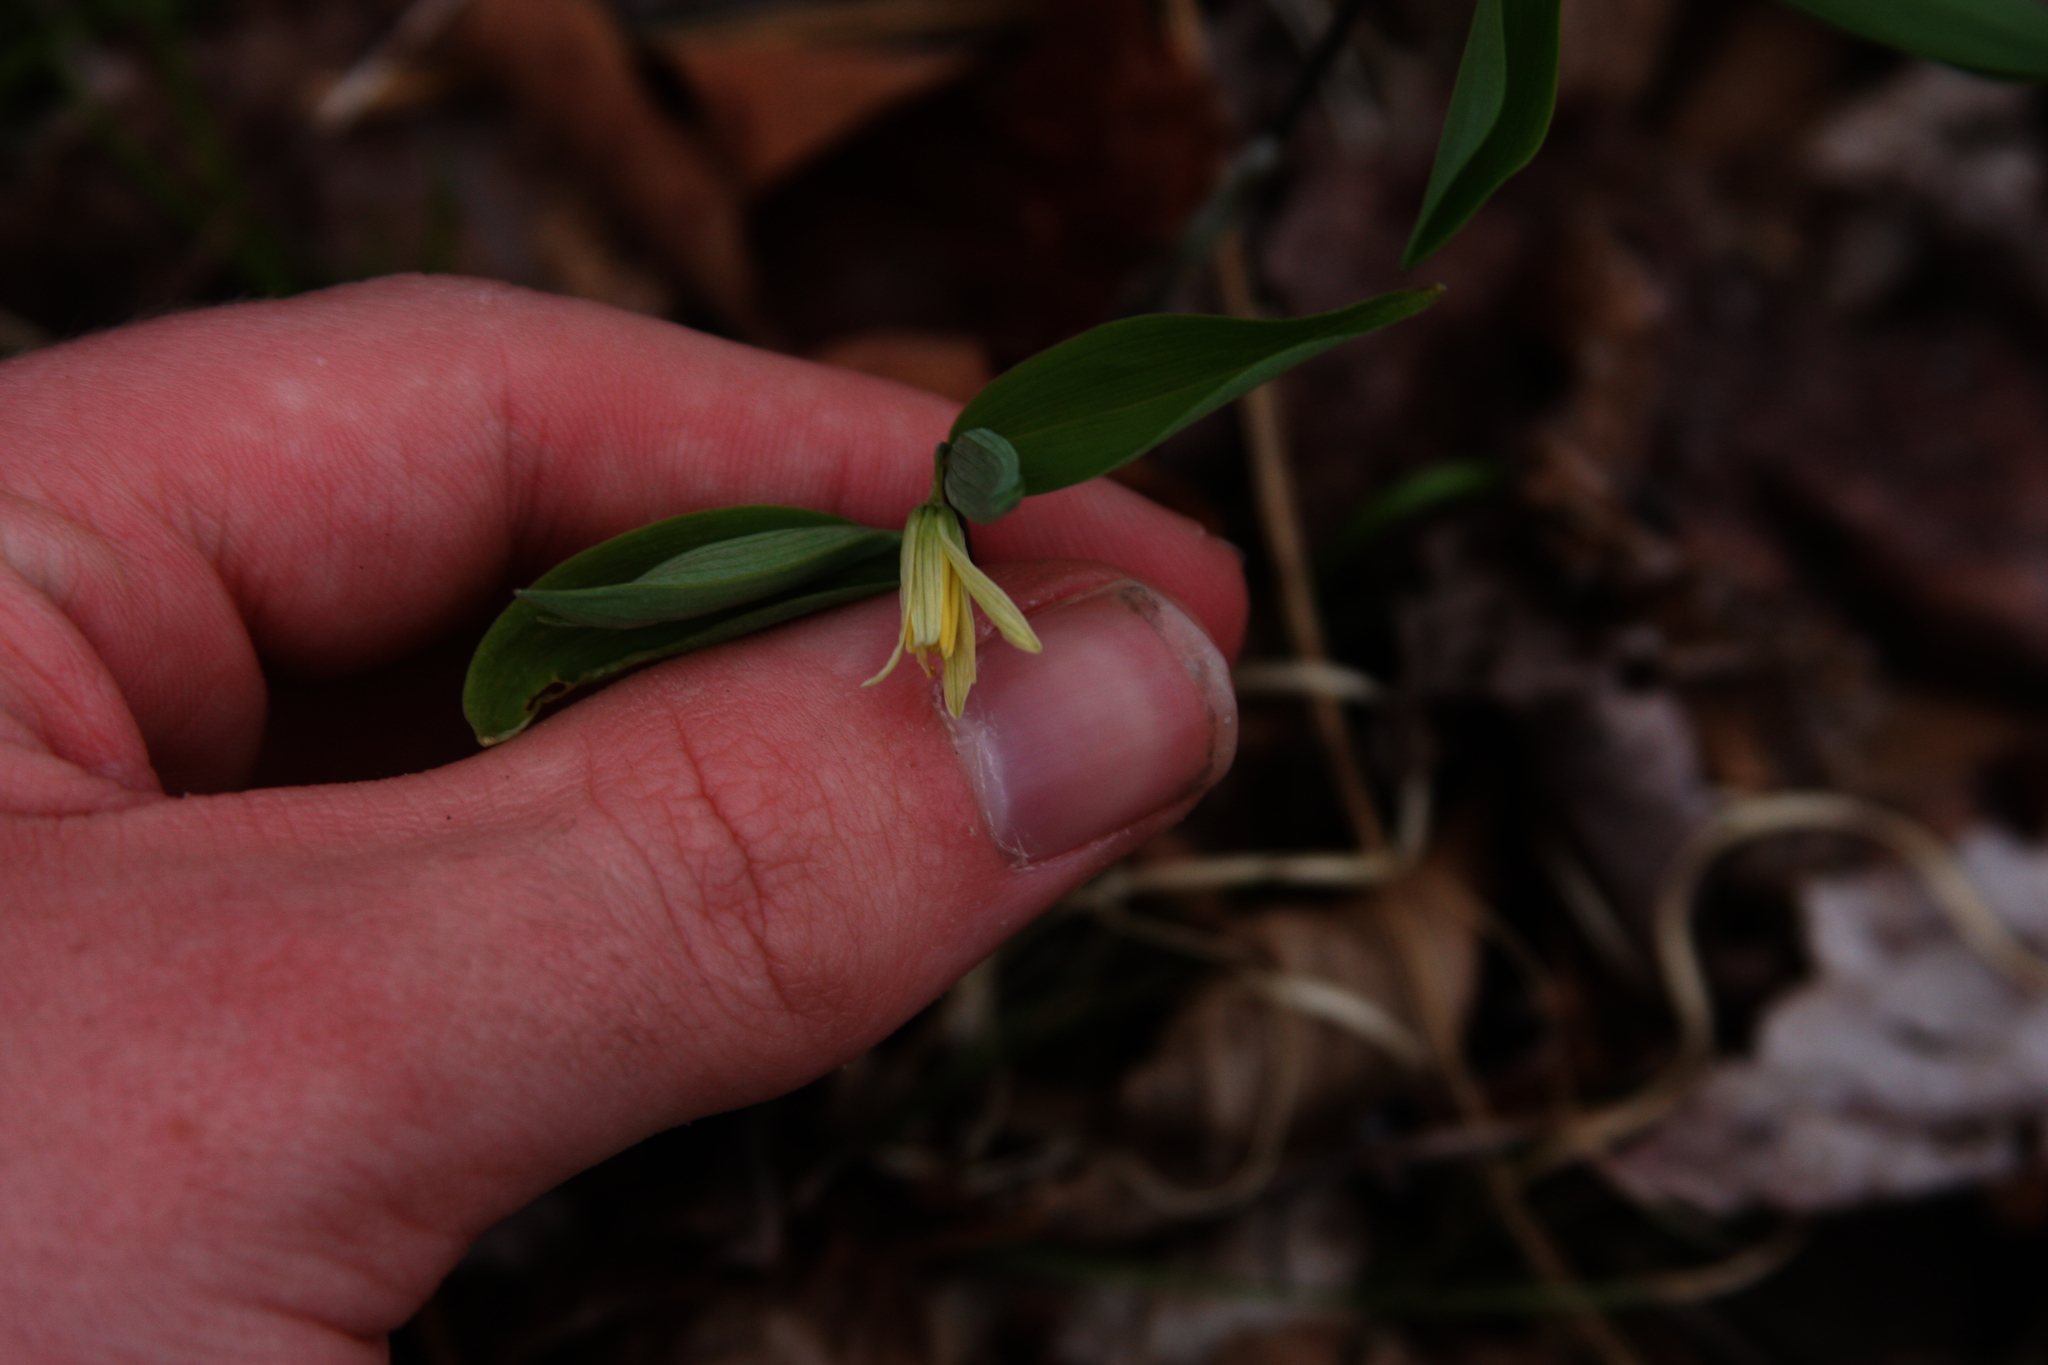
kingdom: Plantae
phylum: Tracheophyta
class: Liliopsida
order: Liliales
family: Colchicaceae
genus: Uvularia
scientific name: Uvularia sessilifolia
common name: Straw-lily
